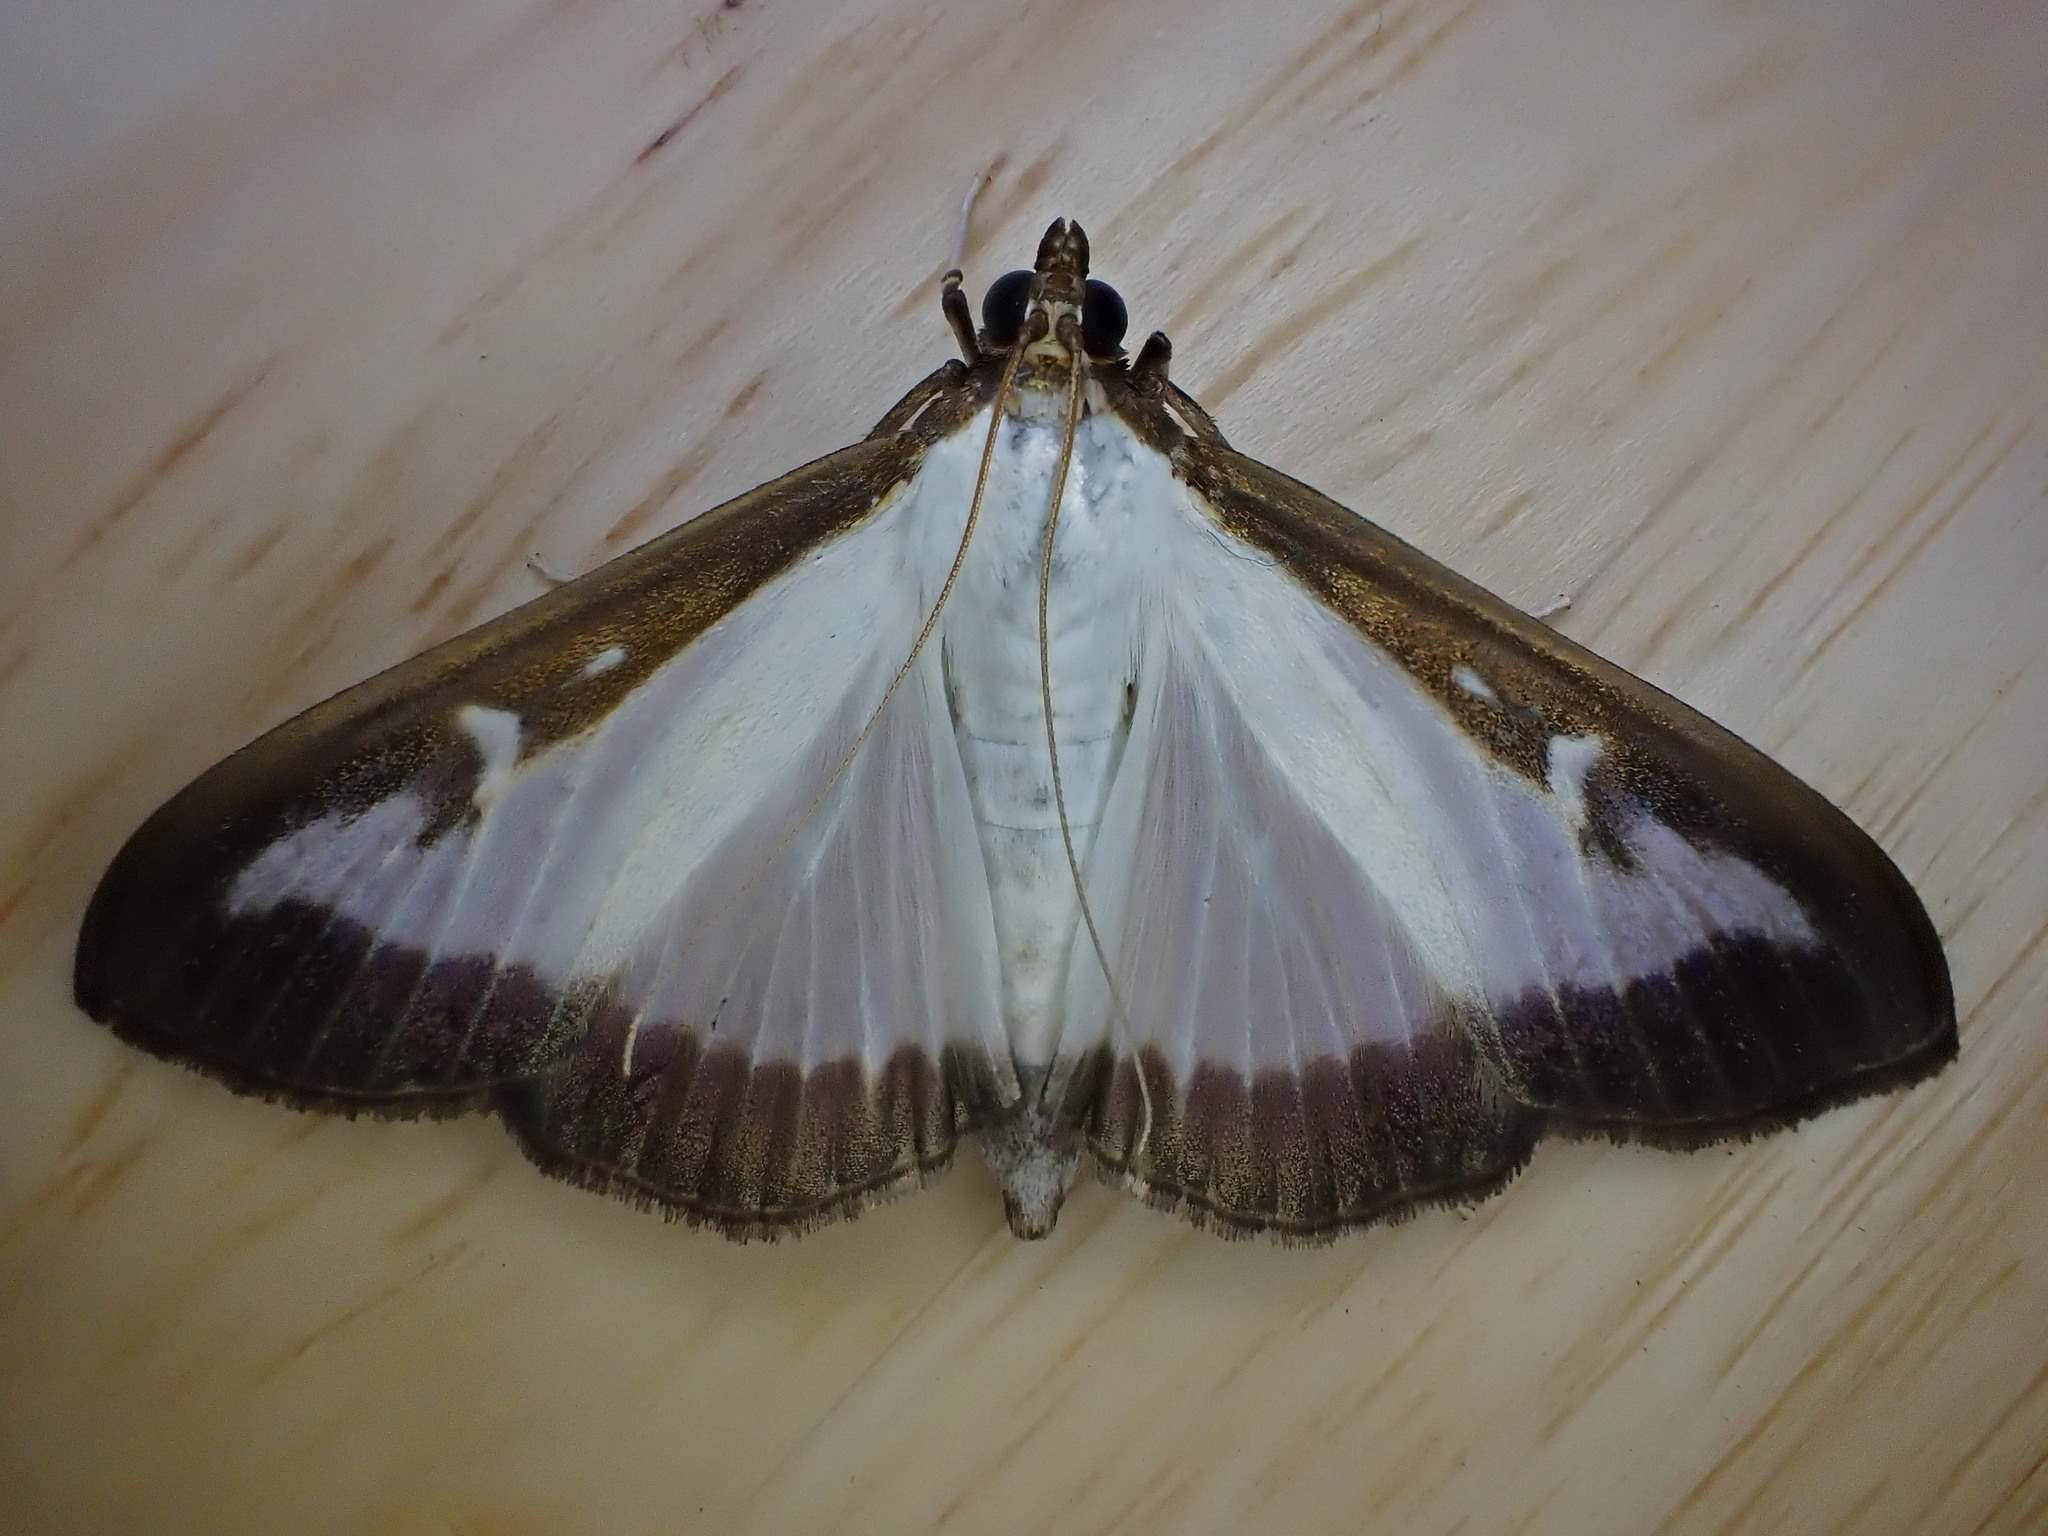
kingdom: Animalia
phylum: Arthropoda
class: Insecta
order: Lepidoptera
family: Crambidae
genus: Cydalima
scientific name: Cydalima perspectalis
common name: Box tree moth
